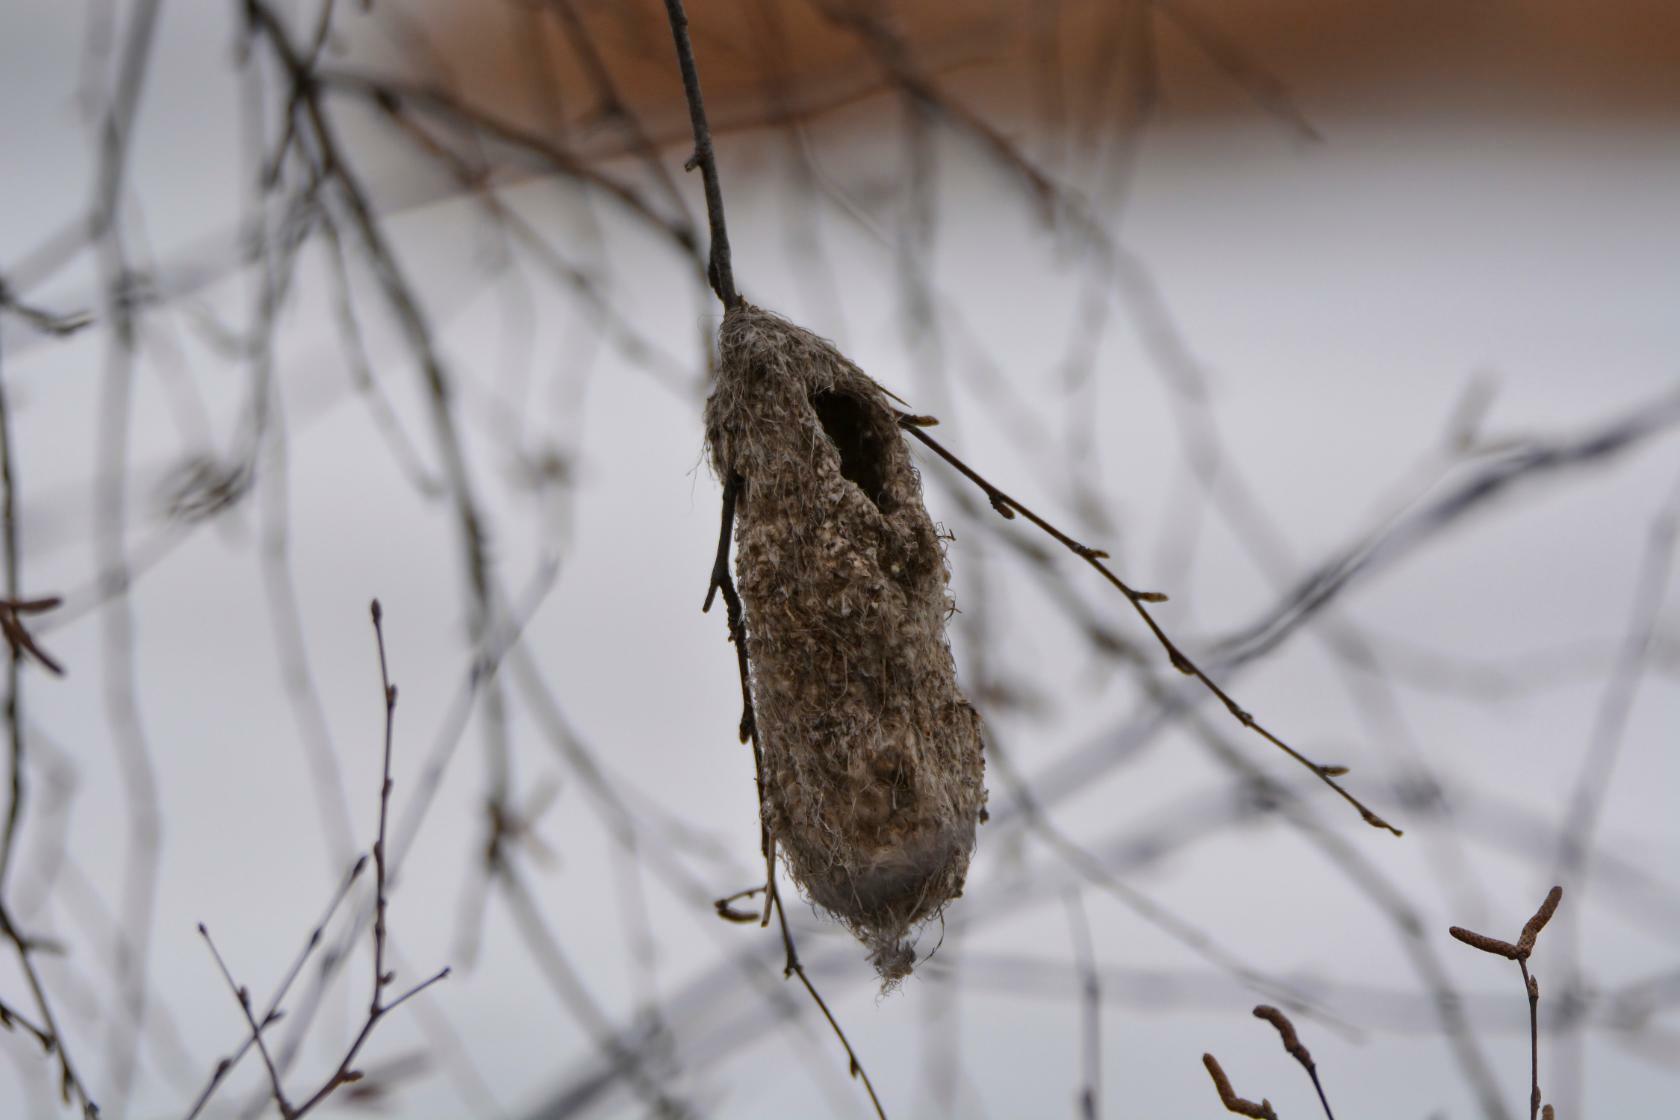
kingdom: Animalia
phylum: Chordata
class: Aves
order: Passeriformes
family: Remizidae
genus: Remiz
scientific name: Remiz pendulinus
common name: Eurasian penduline tit
